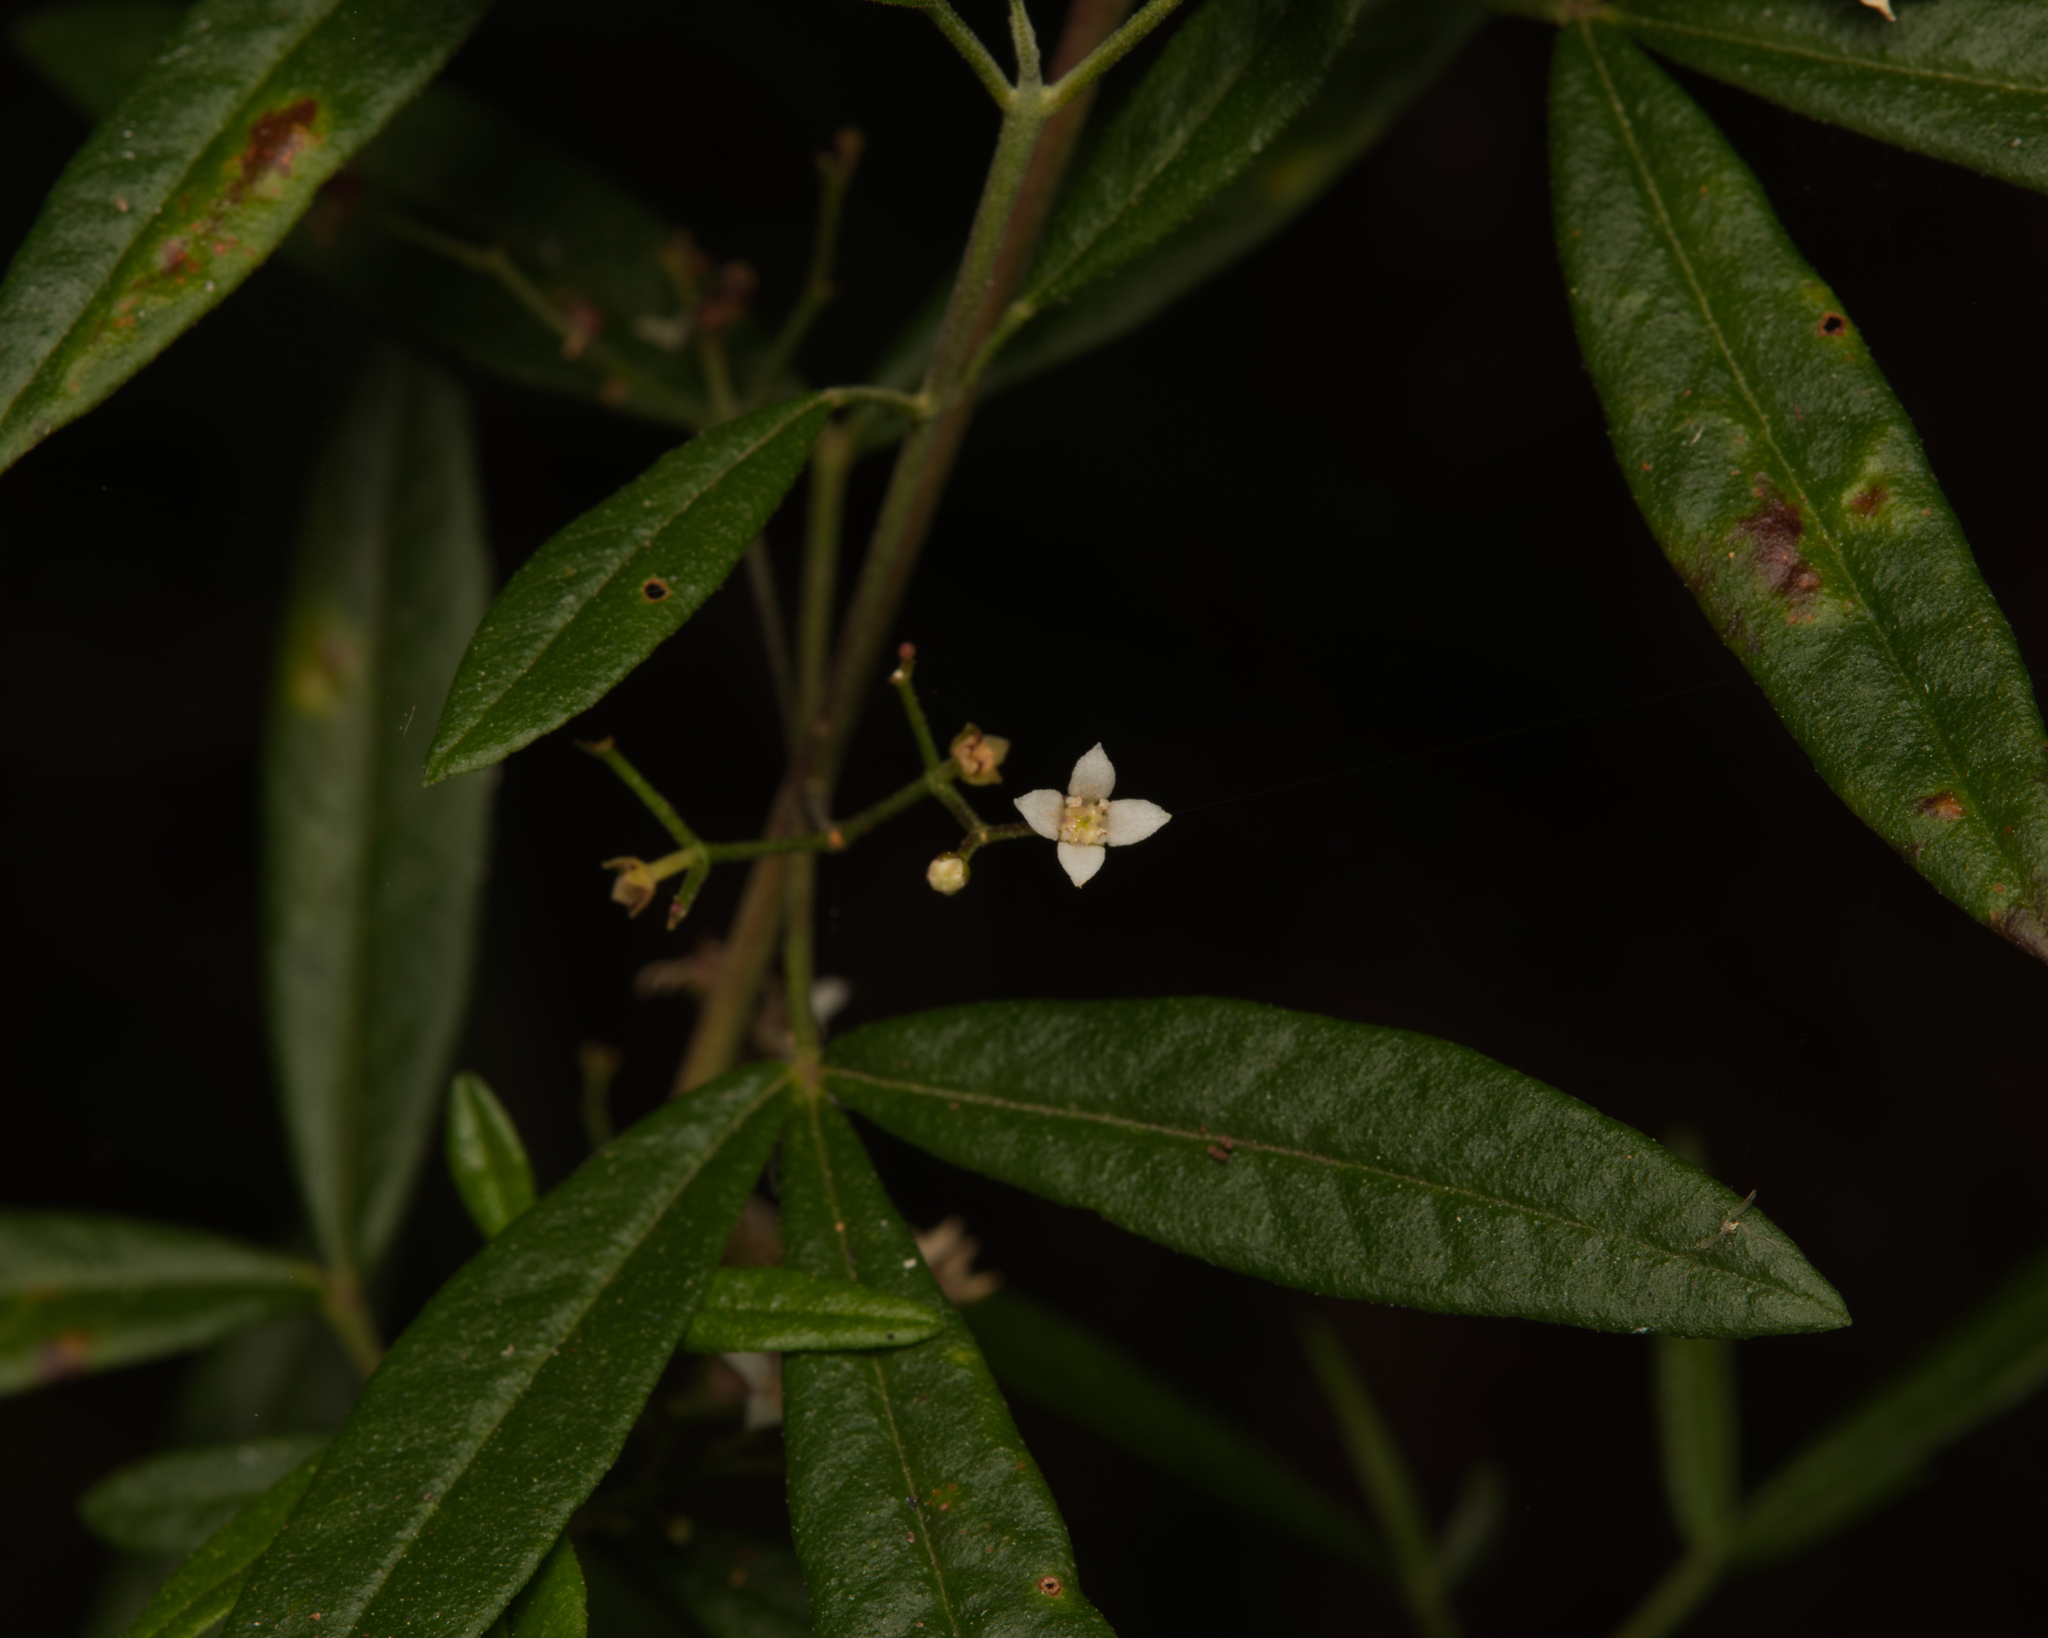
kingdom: Plantae
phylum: Tracheophyta
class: Magnoliopsida
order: Sapindales
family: Rutaceae
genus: Zieria
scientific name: Zieria smithii
